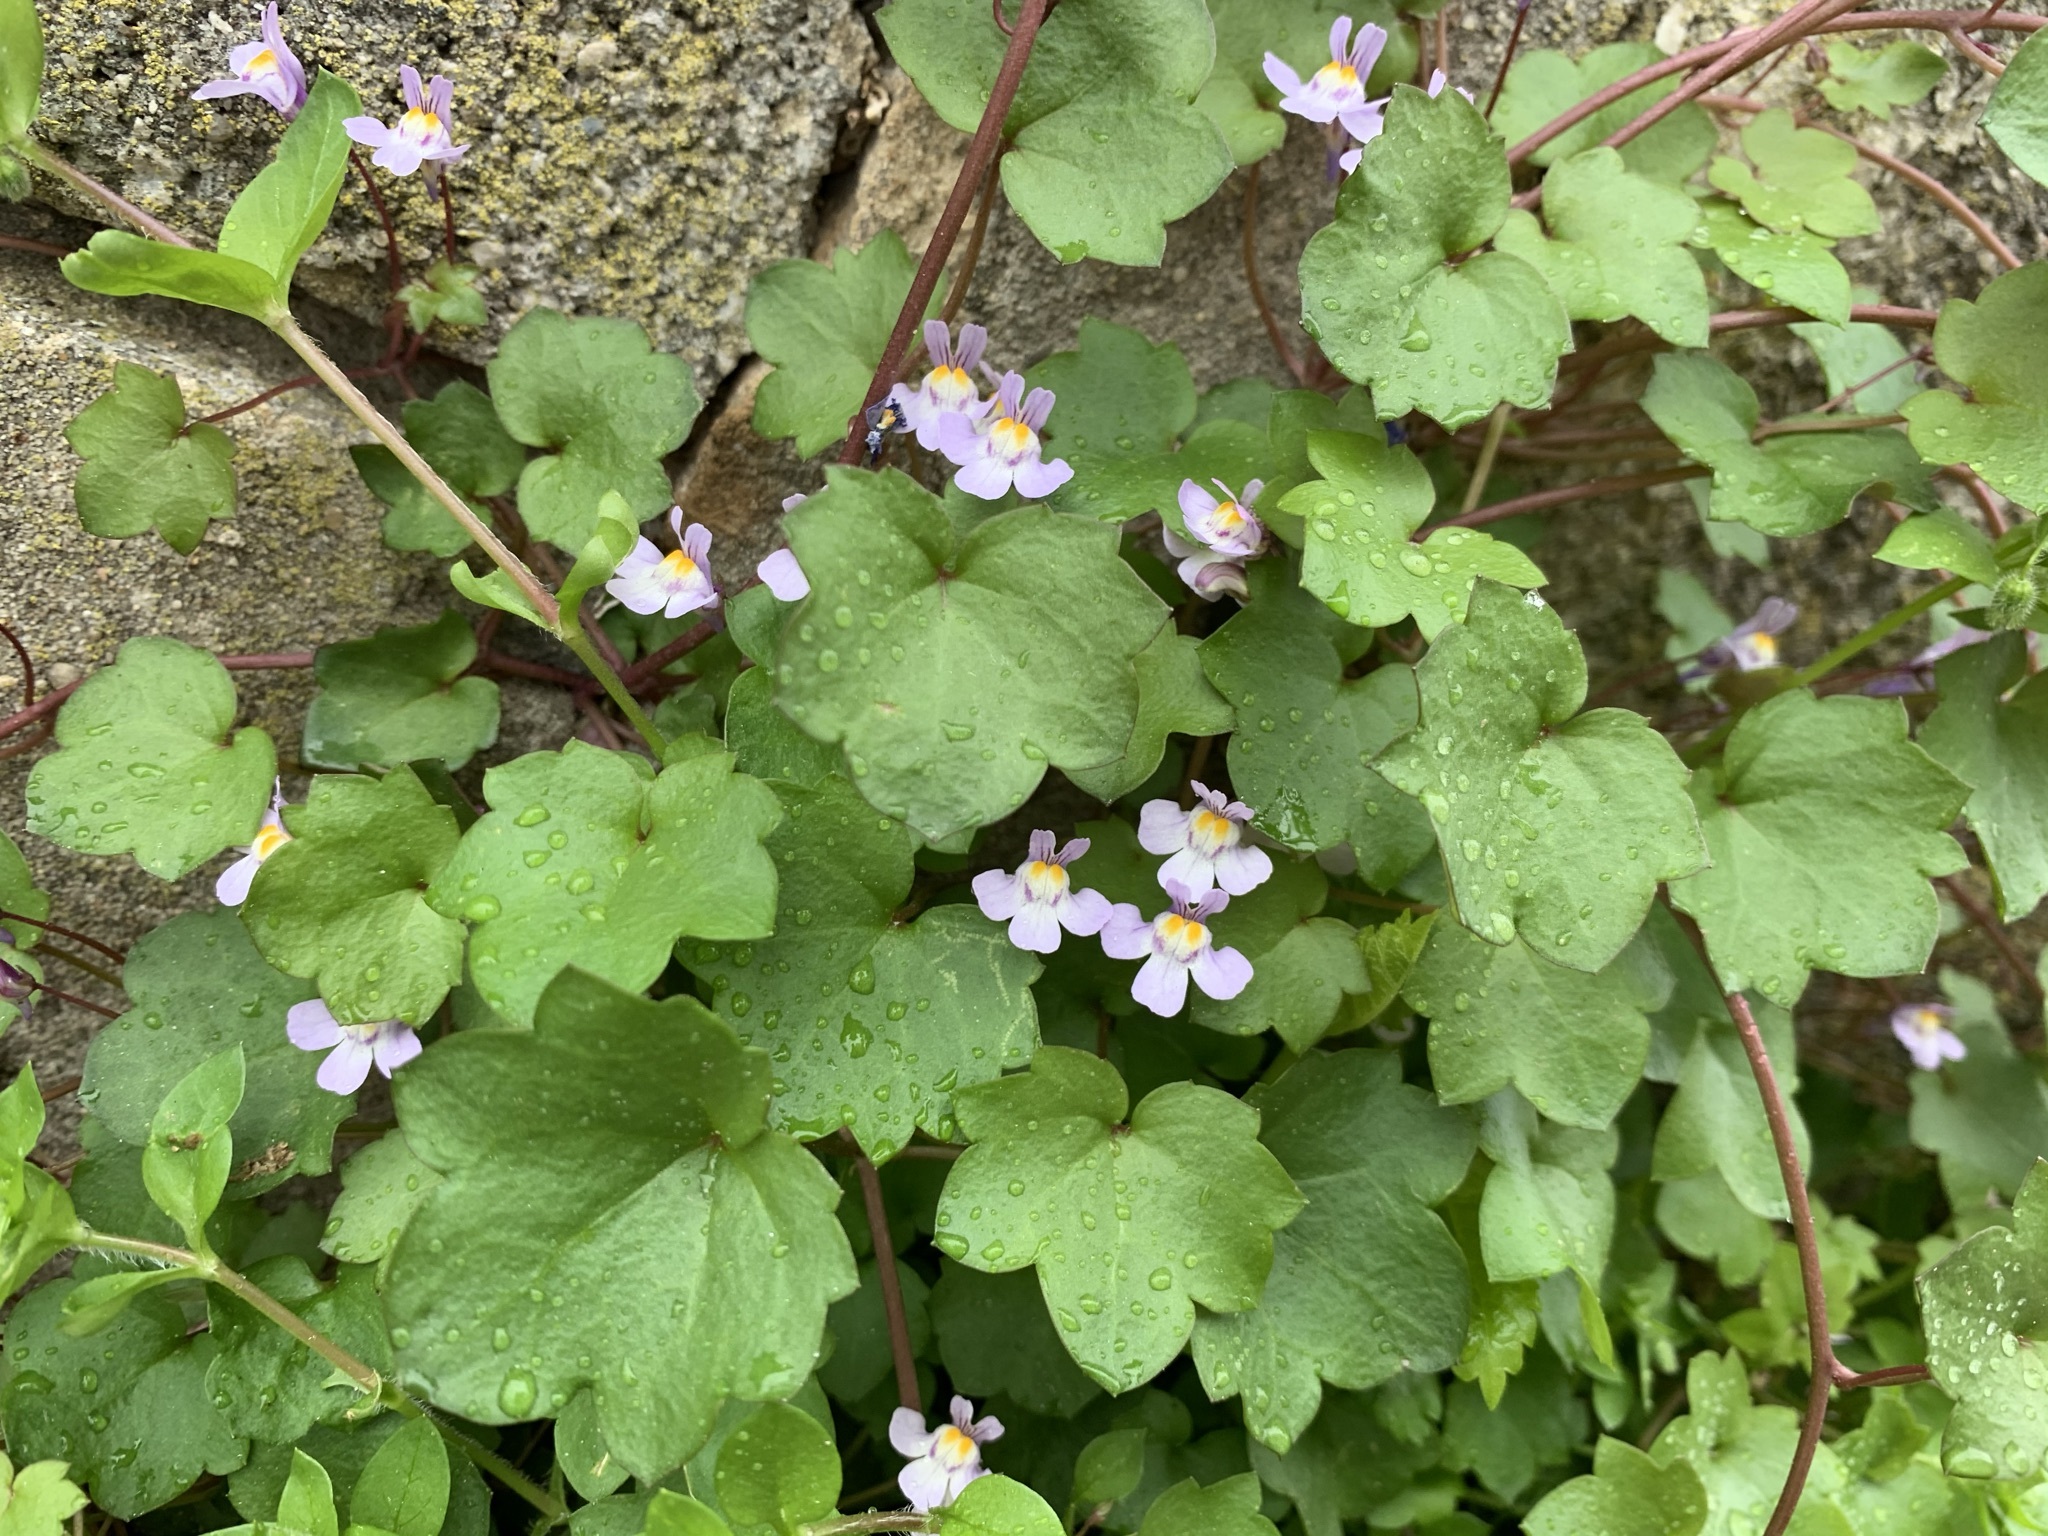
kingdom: Plantae
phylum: Tracheophyta
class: Magnoliopsida
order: Lamiales
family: Plantaginaceae
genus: Cymbalaria
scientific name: Cymbalaria muralis
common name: Ivy-leaved toadflax
